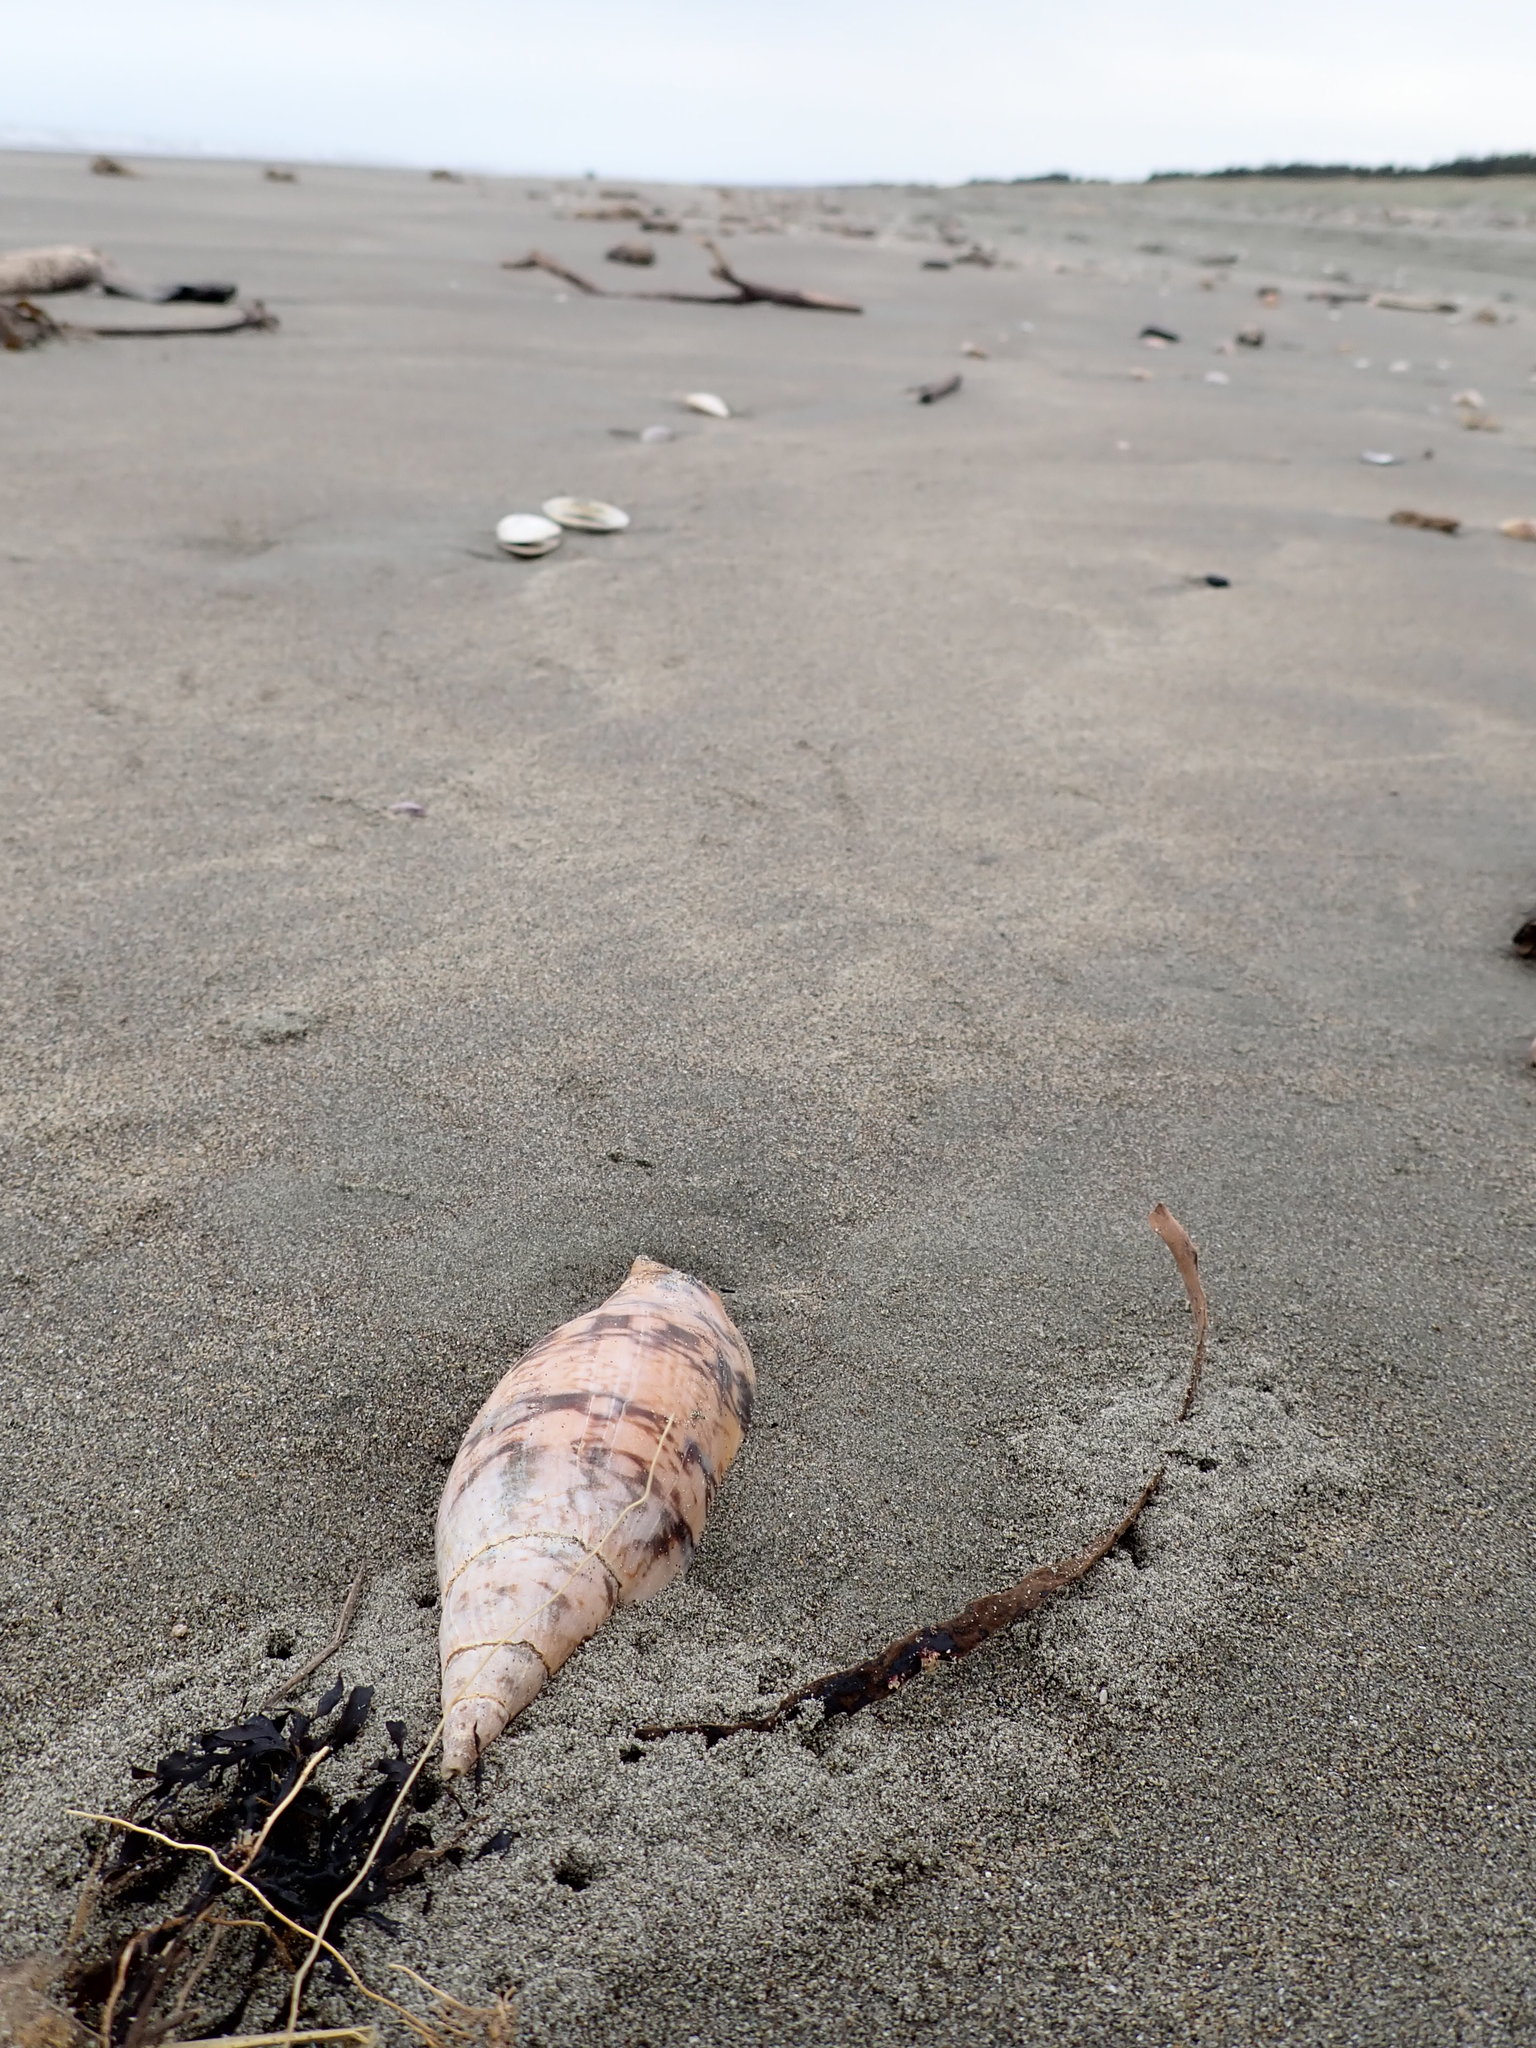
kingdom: Animalia
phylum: Mollusca
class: Gastropoda
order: Neogastropoda
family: Volutidae
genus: Alcithoe
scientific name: Alcithoe arabica
